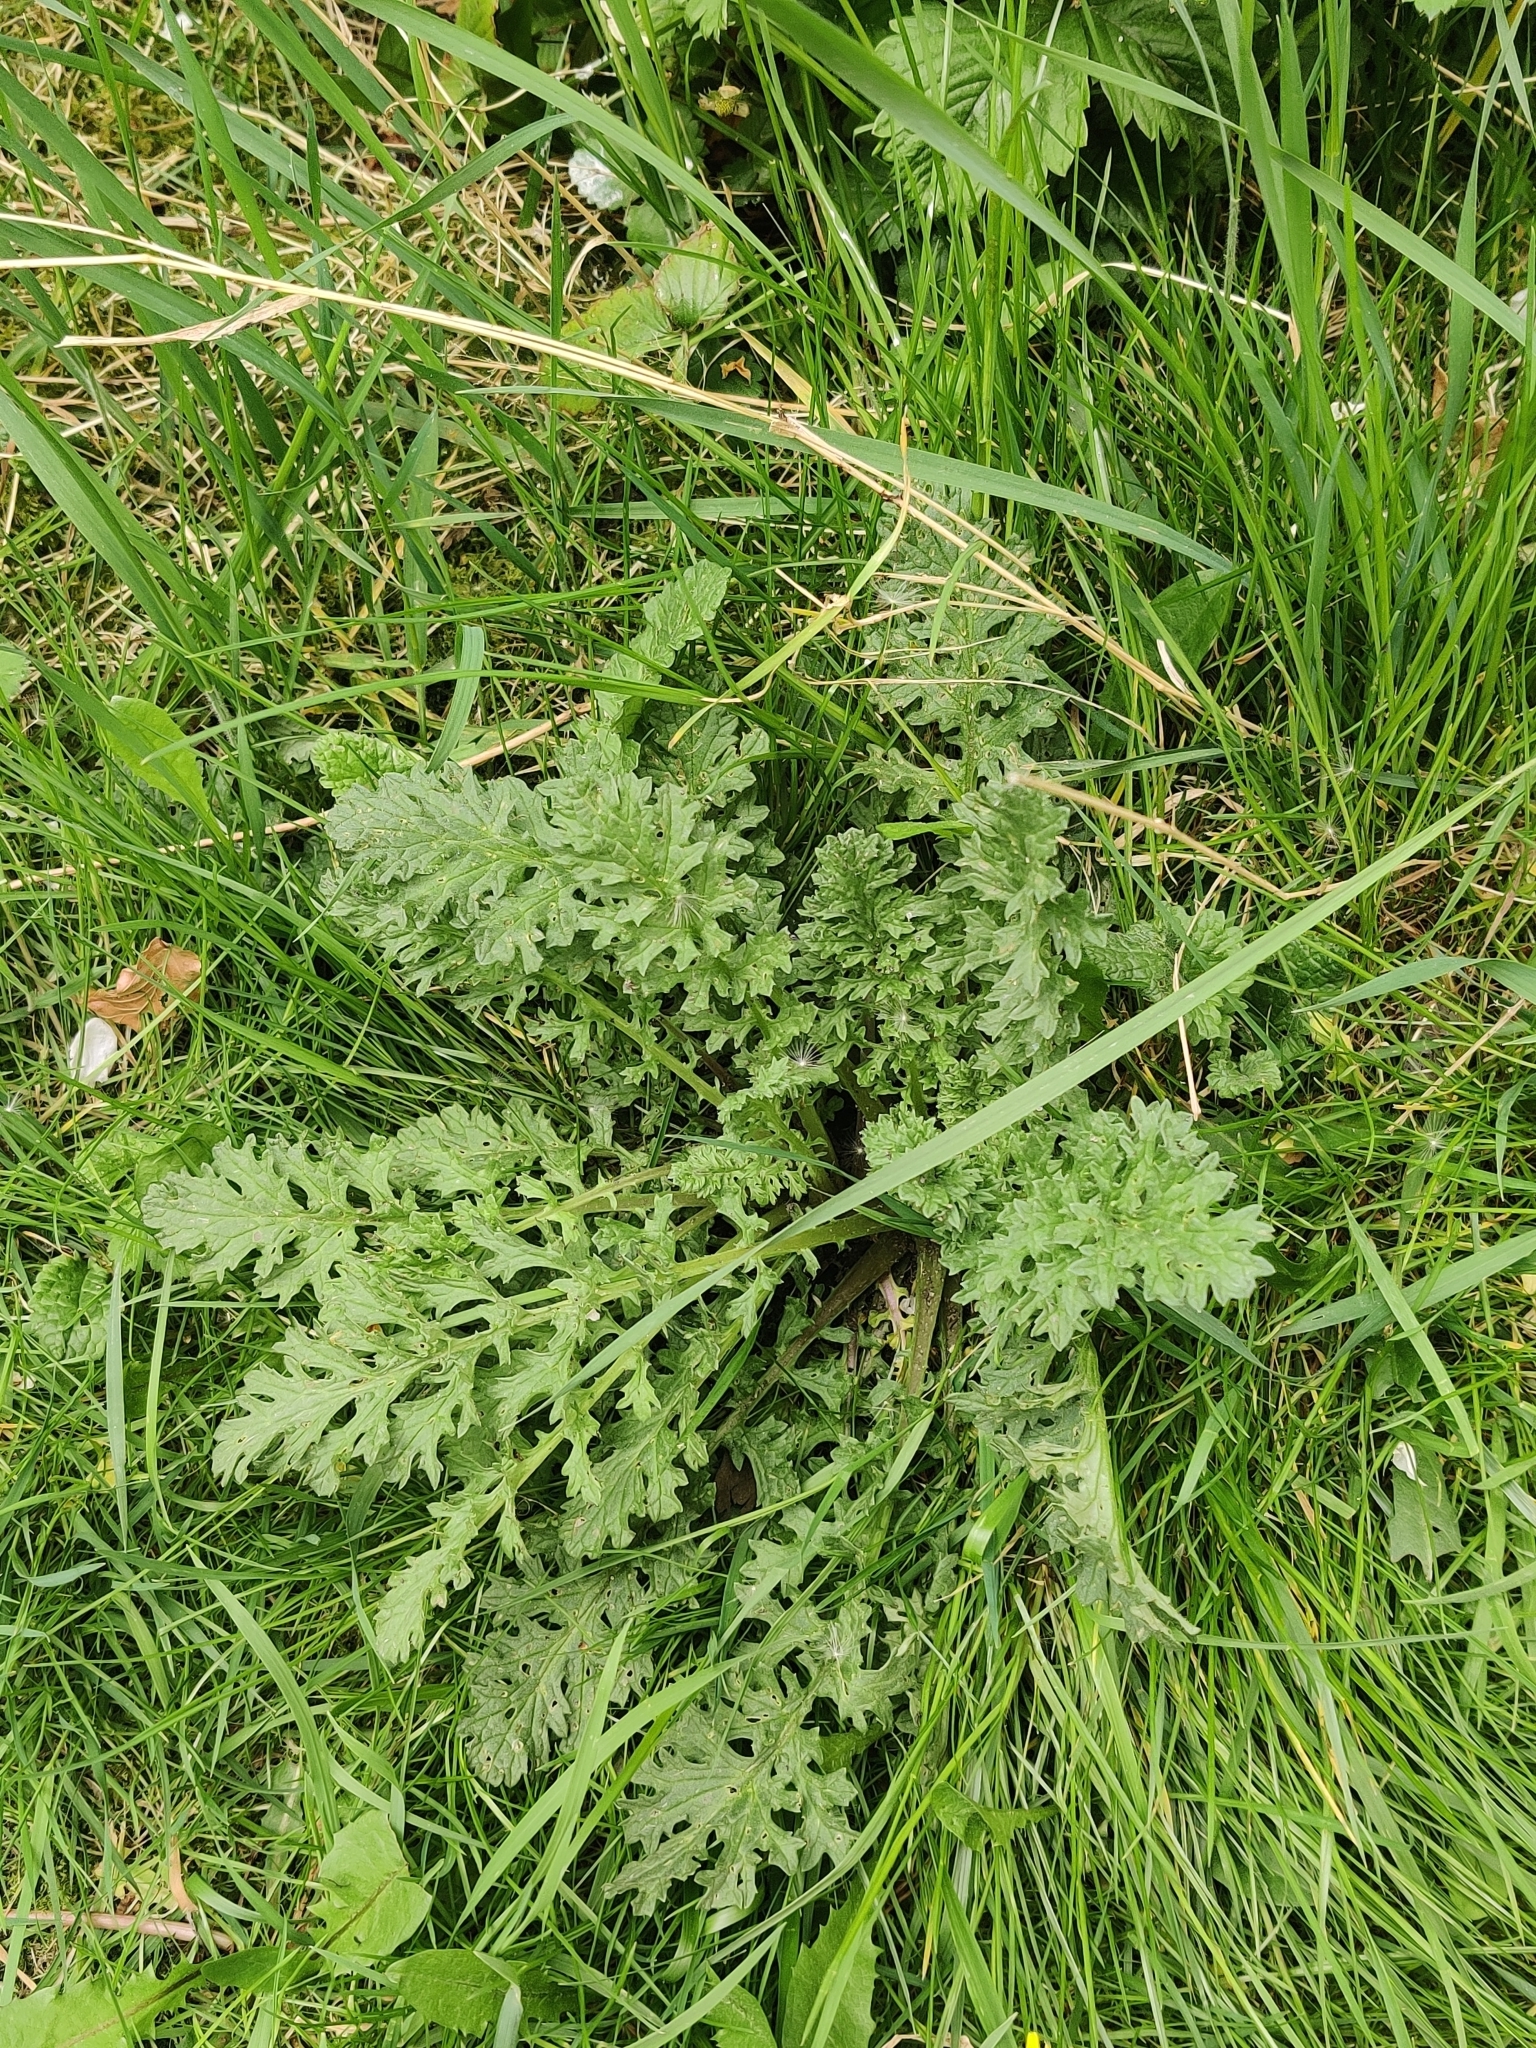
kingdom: Plantae
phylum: Tracheophyta
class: Magnoliopsida
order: Asterales
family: Asteraceae
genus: Jacobaea
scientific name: Jacobaea vulgaris
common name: Stinking willie
